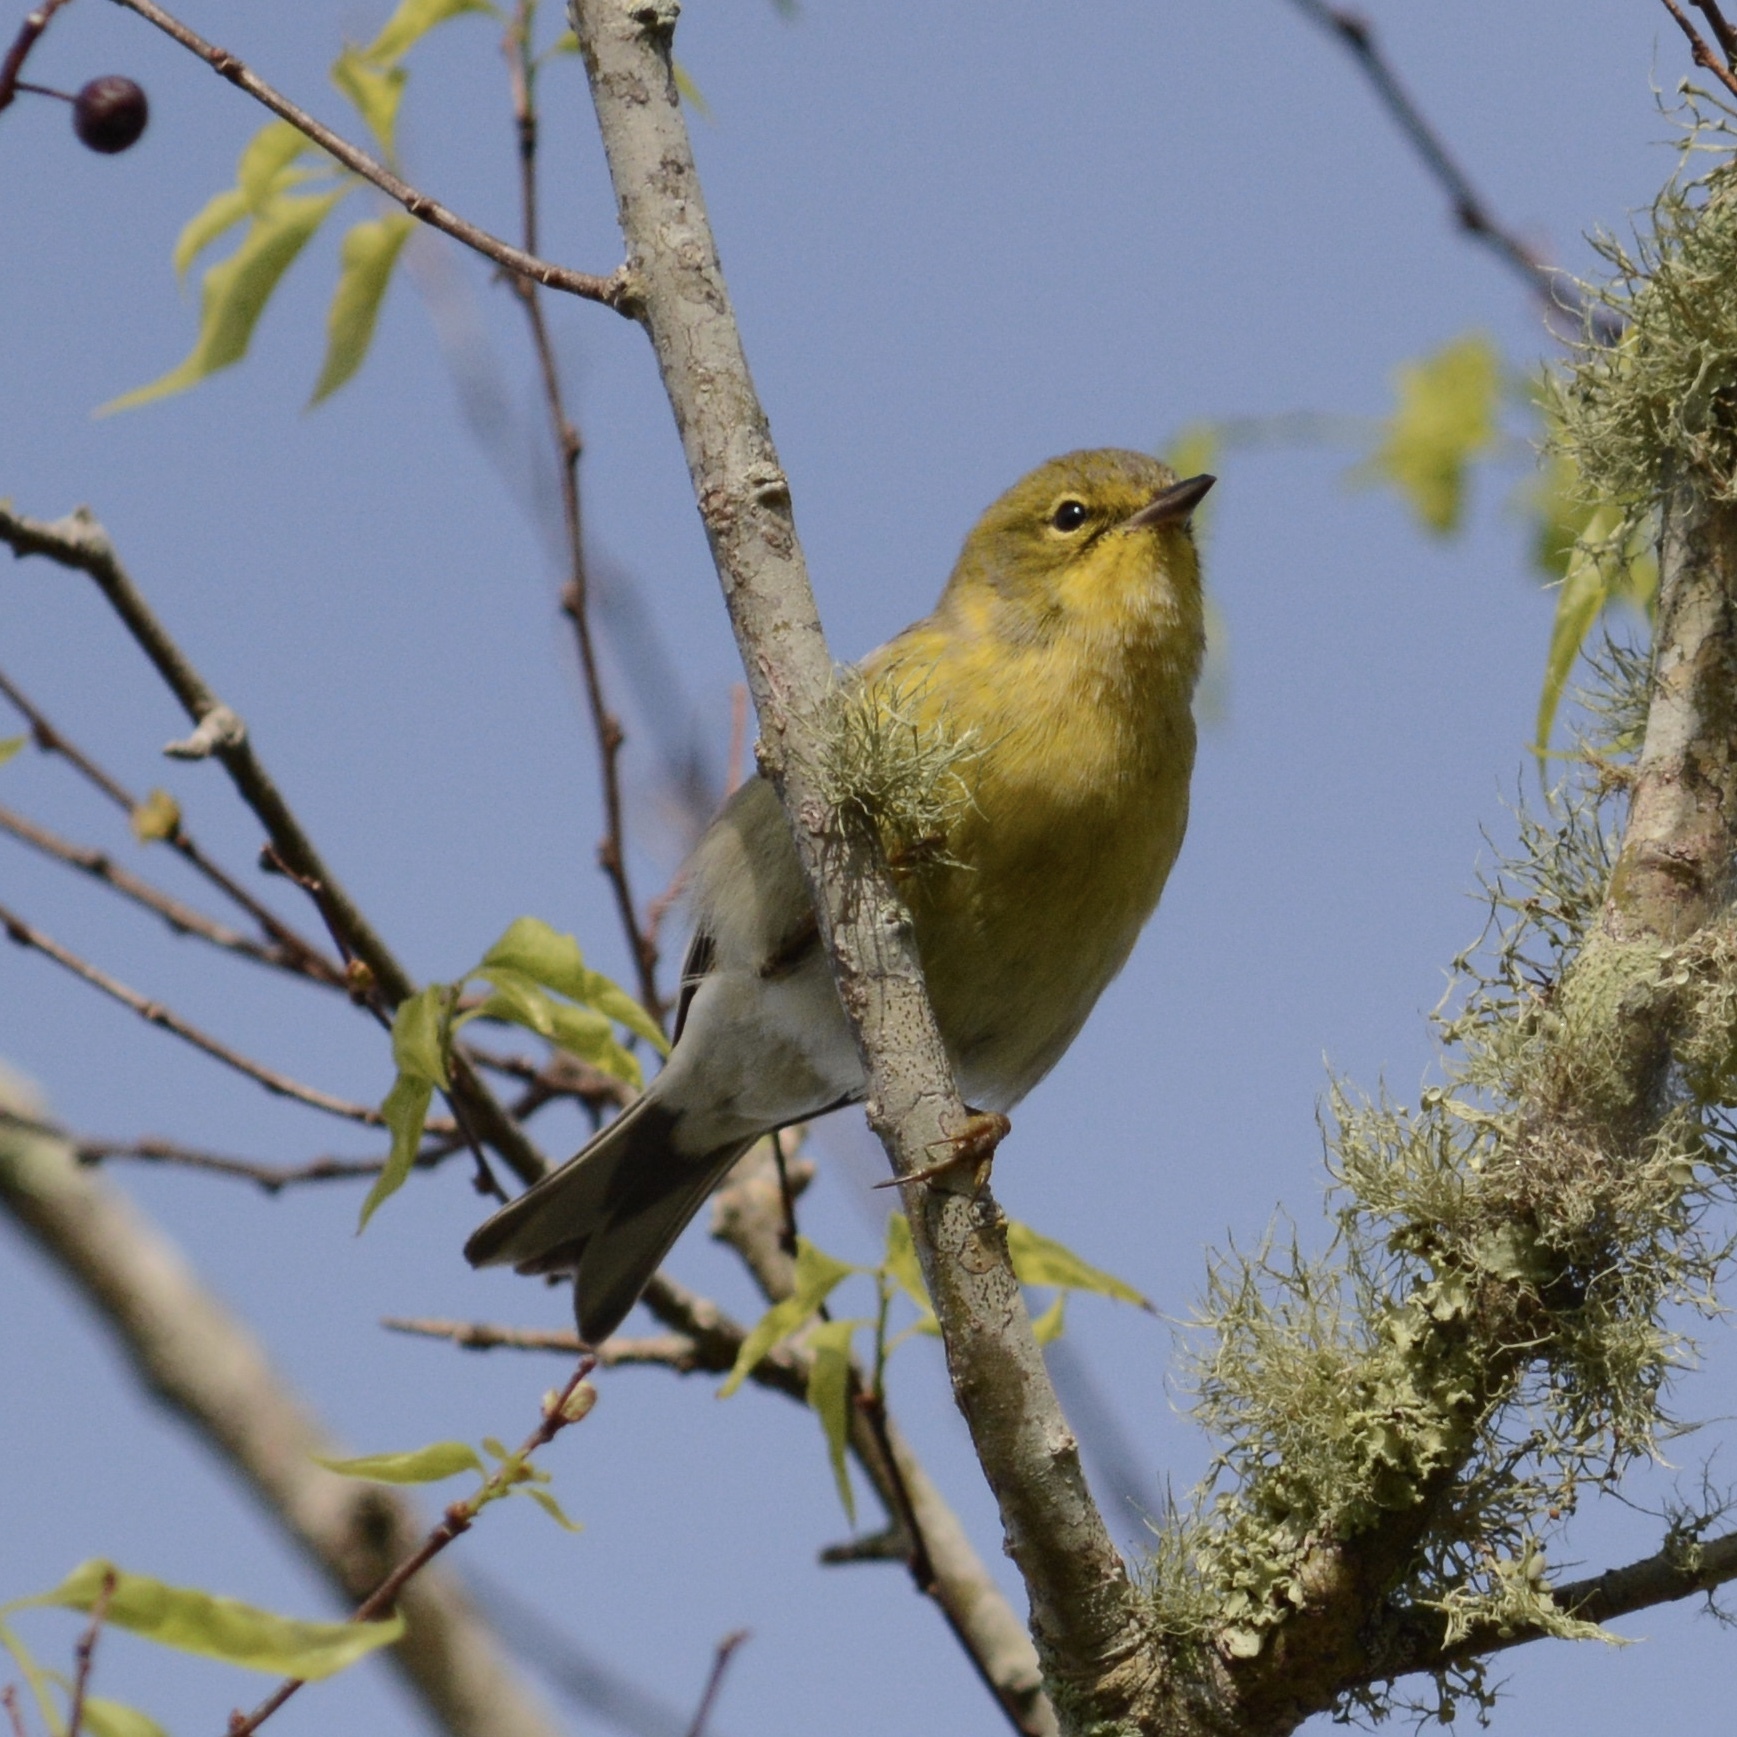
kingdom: Animalia
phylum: Chordata
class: Aves
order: Passeriformes
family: Parulidae
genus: Setophaga
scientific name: Setophaga pinus
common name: Pine warbler
